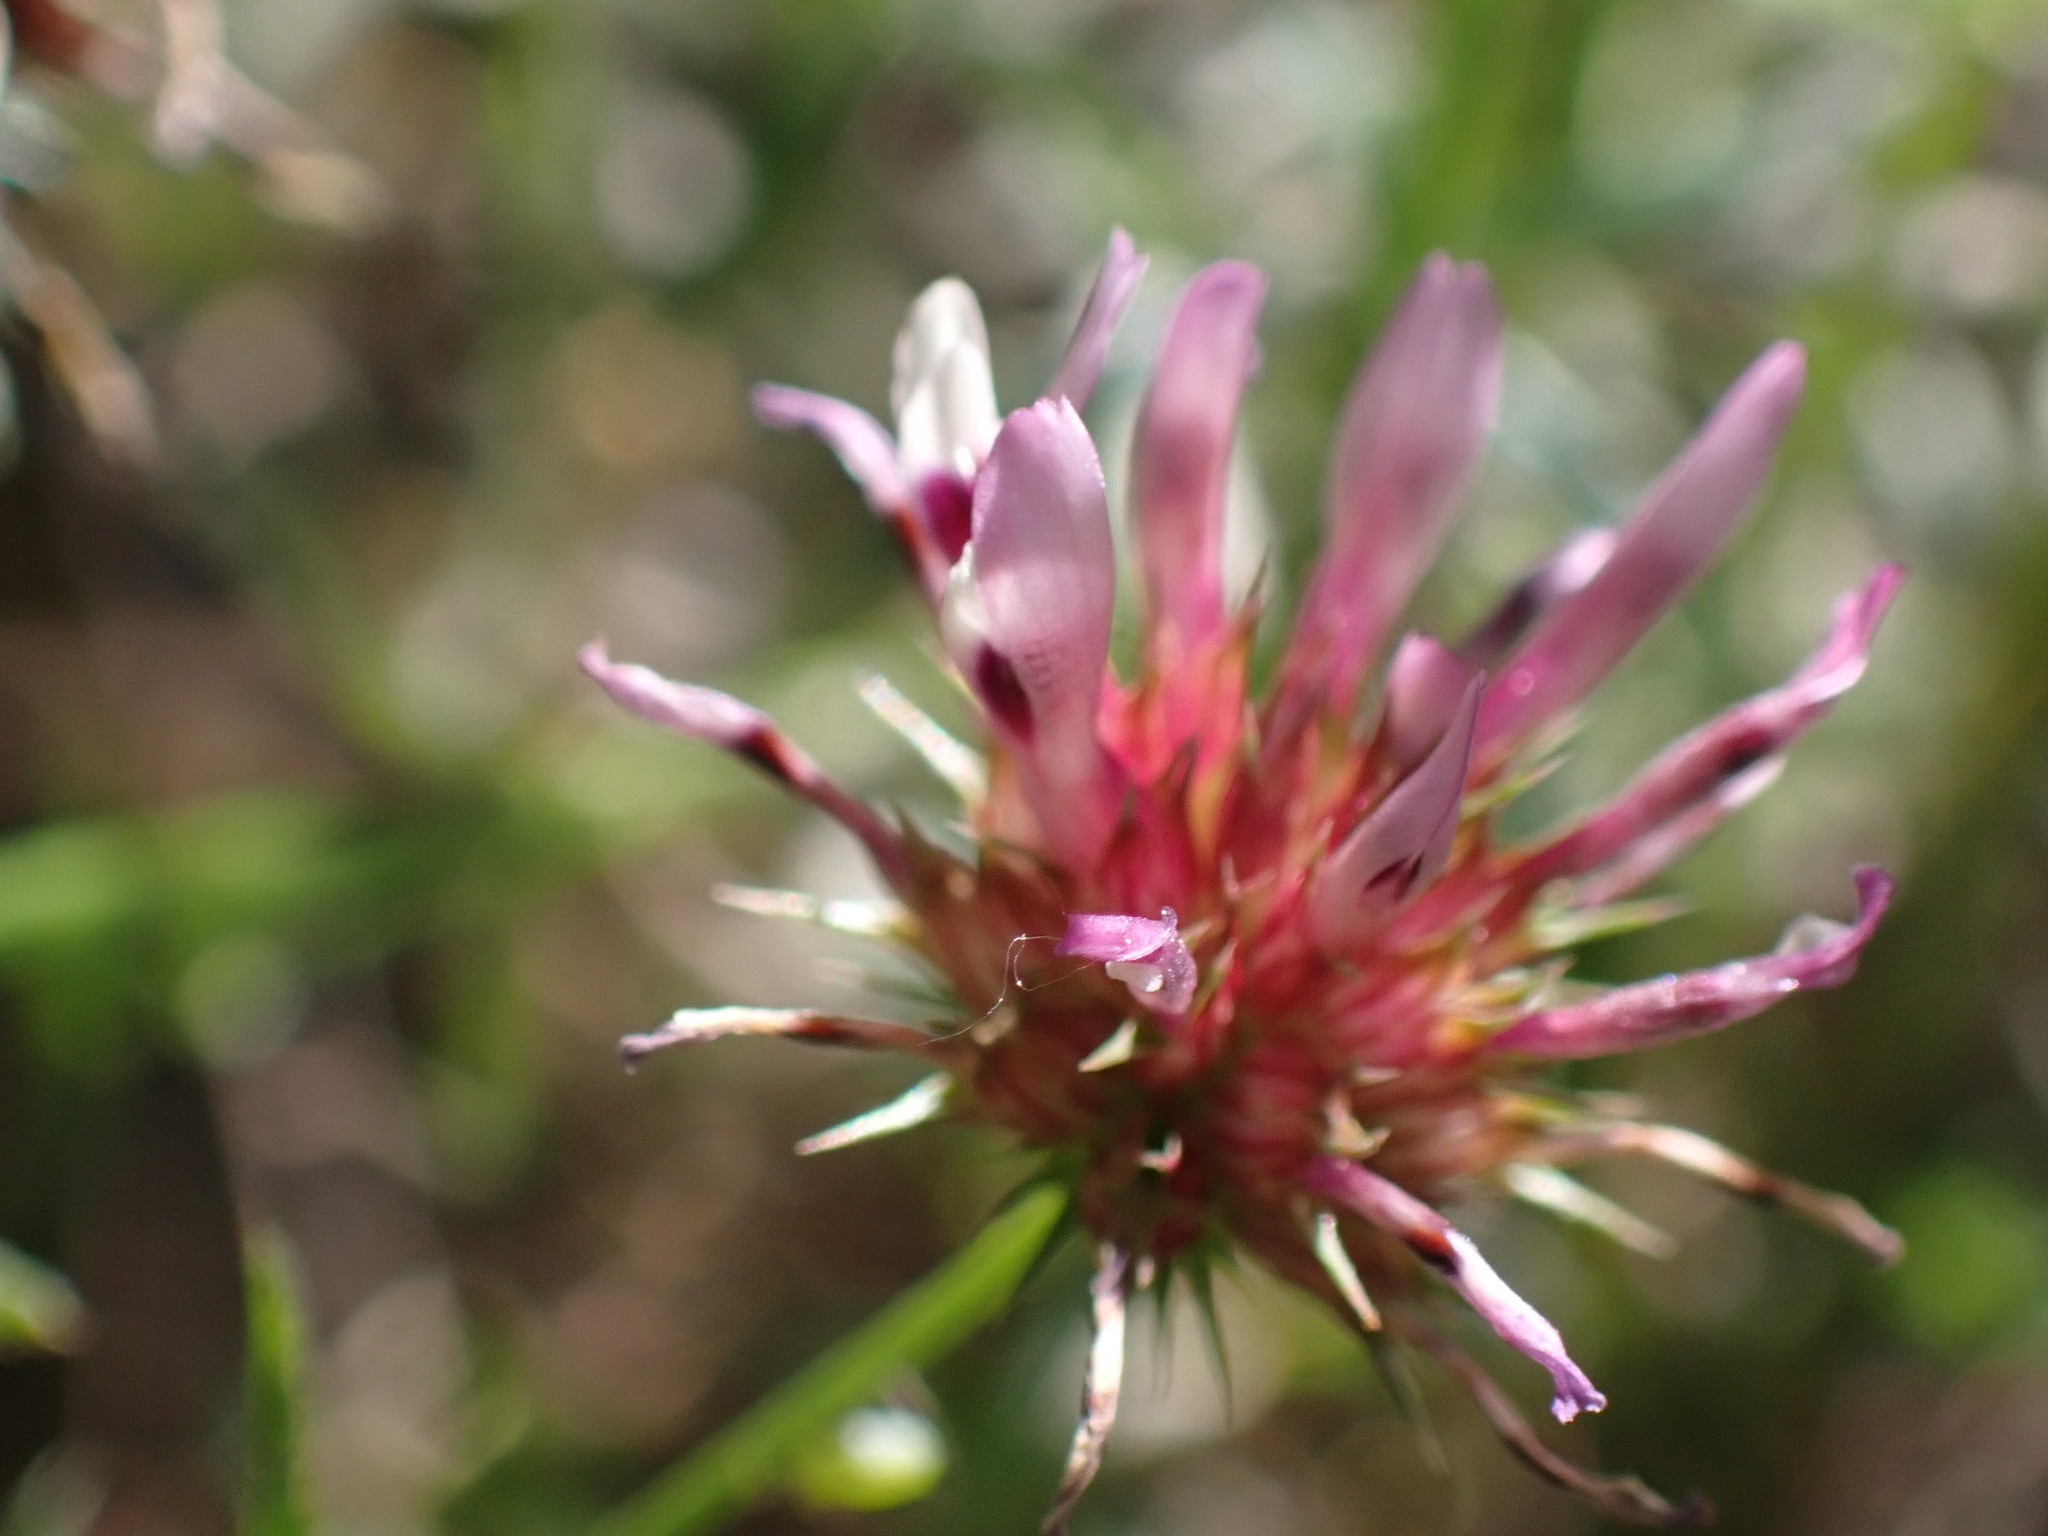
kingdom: Plantae
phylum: Tracheophyta
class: Magnoliopsida
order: Fabales
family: Fabaceae
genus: Trifolium
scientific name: Trifolium willdenovii
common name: Tomcat clover
